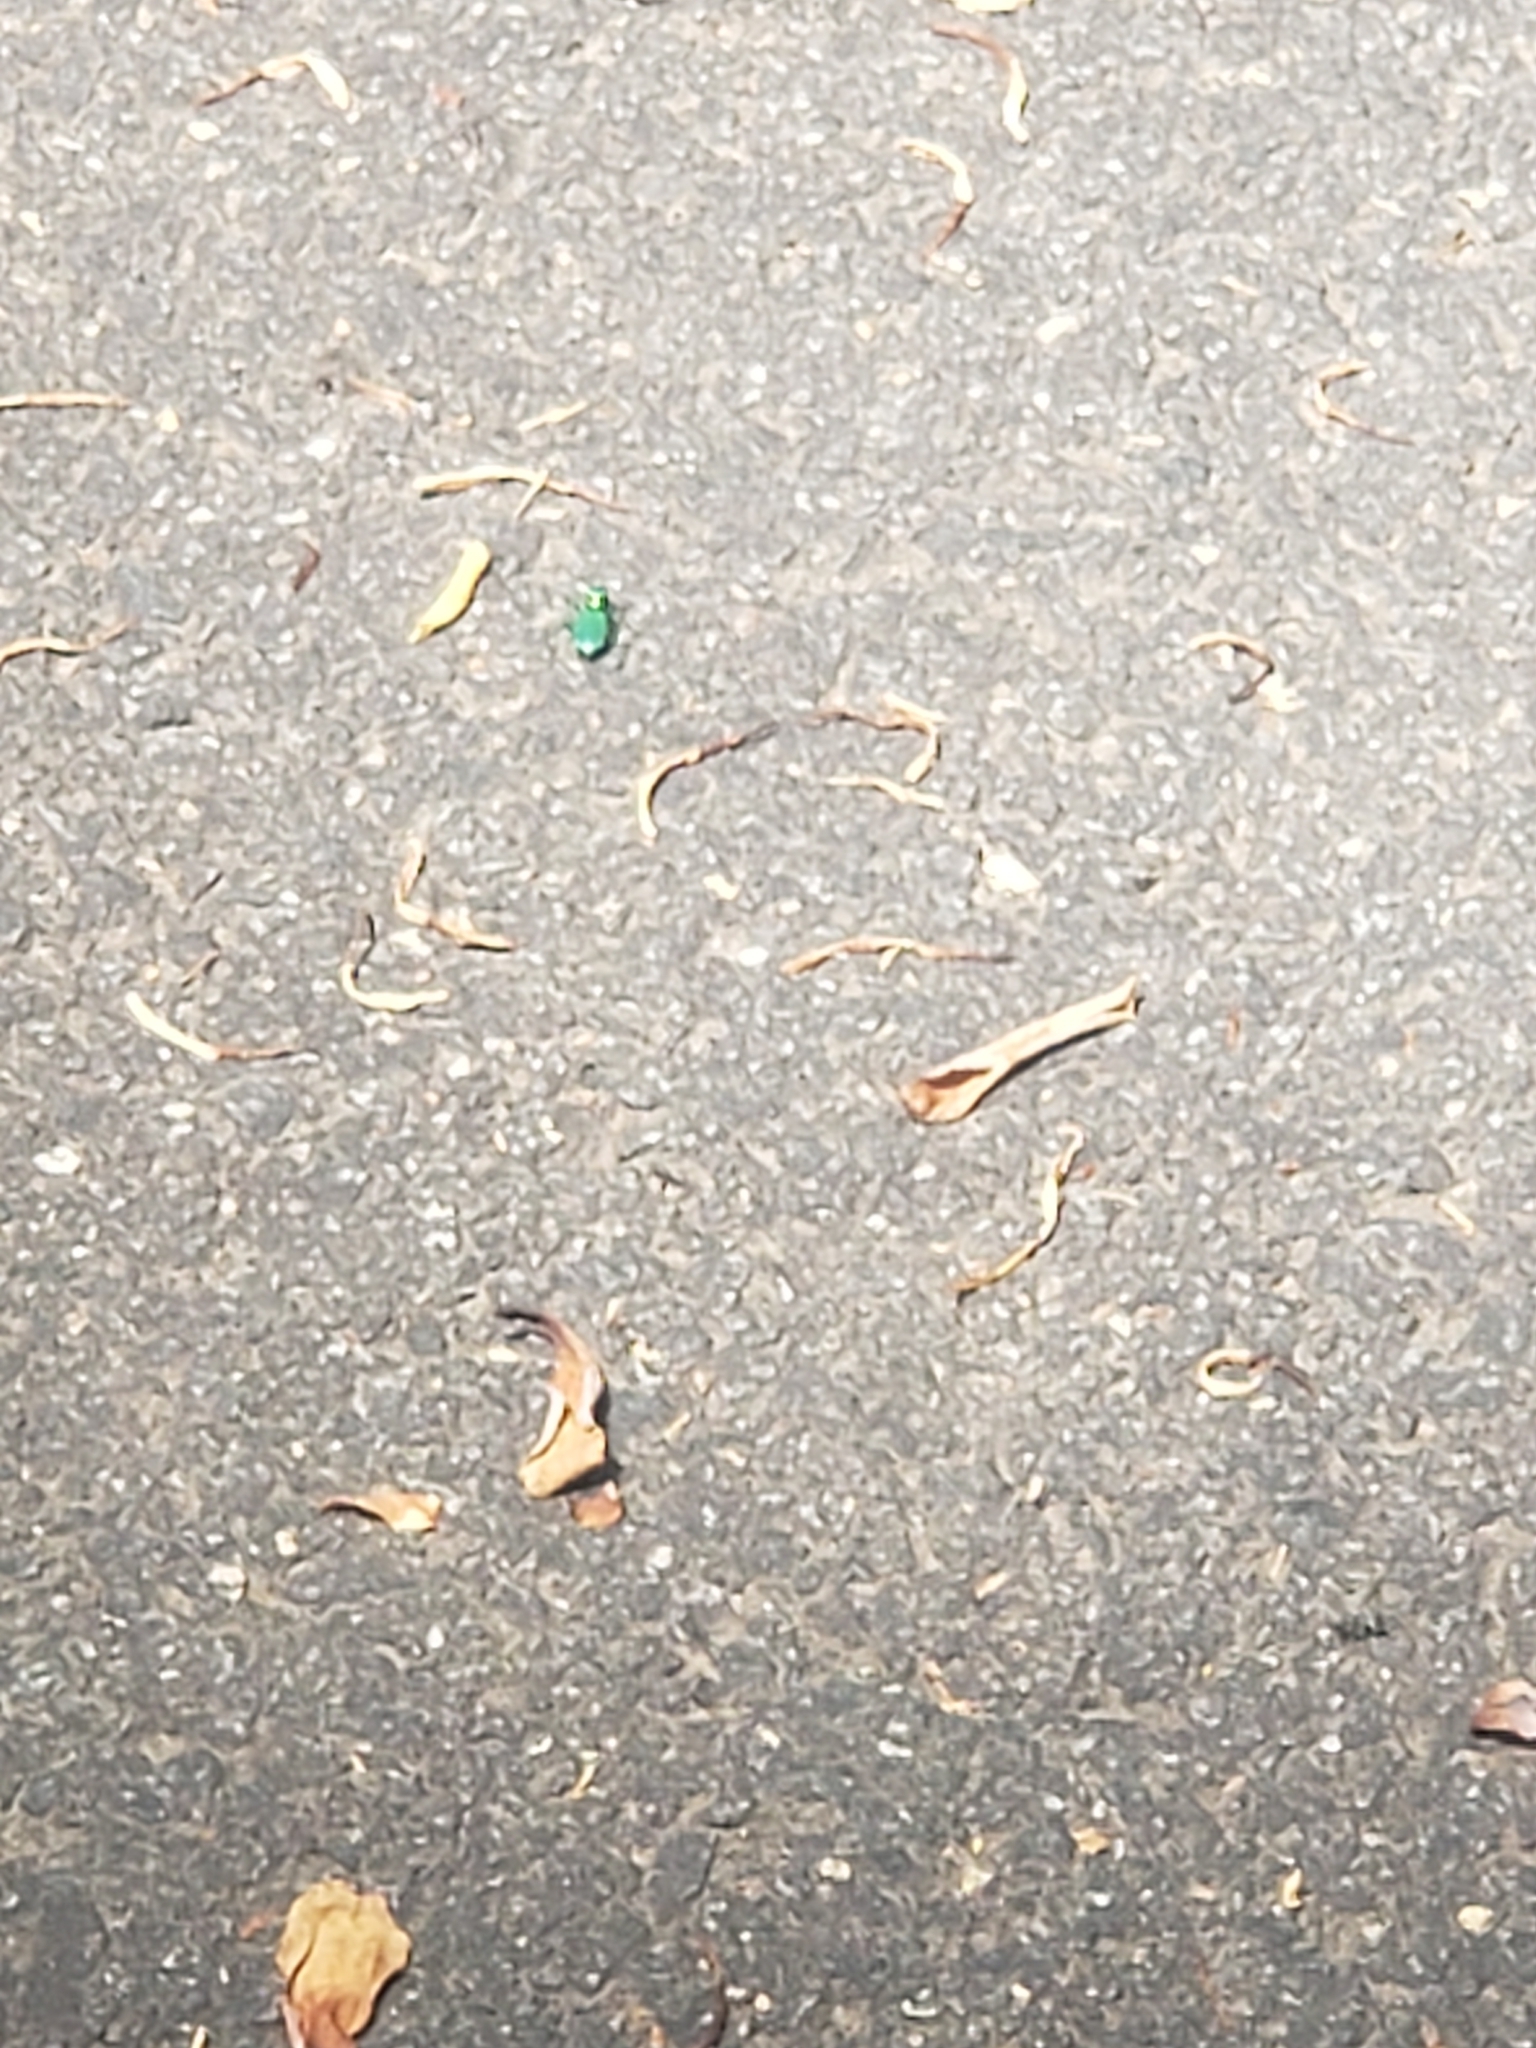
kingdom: Animalia
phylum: Arthropoda
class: Insecta
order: Coleoptera
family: Carabidae
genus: Cicindela
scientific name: Cicindela sexguttata
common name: Six-spotted tiger beetle
